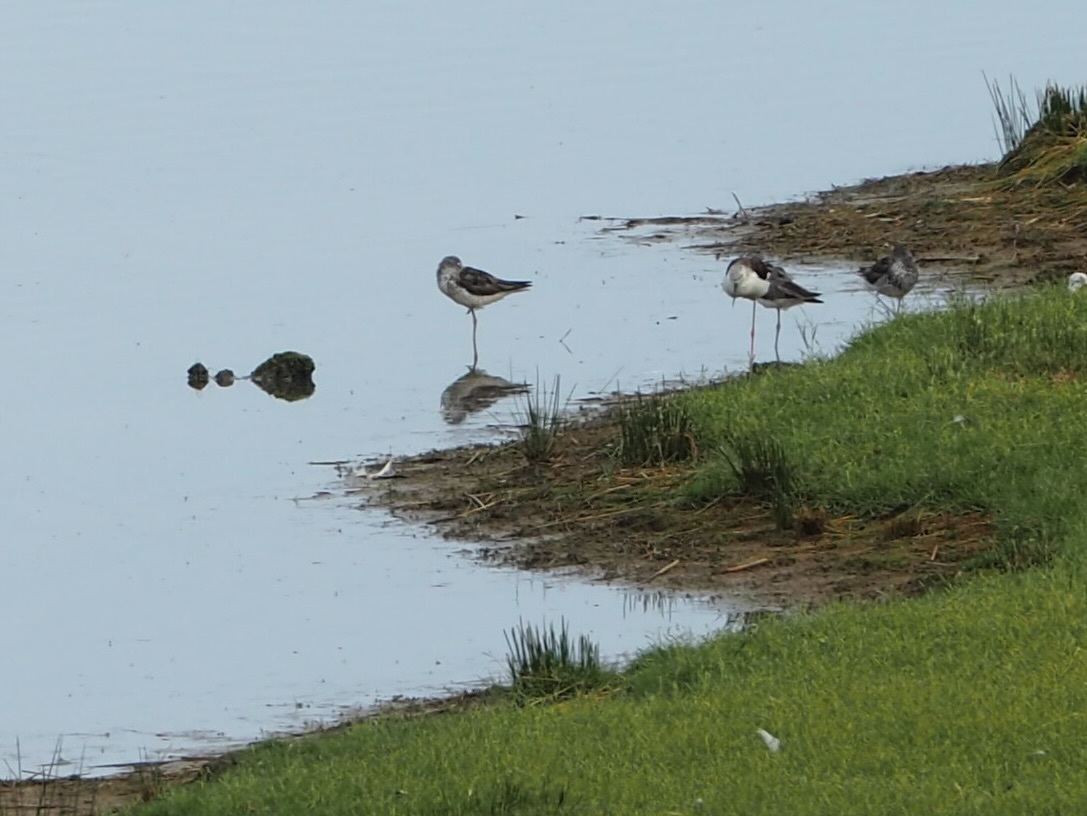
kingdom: Animalia
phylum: Chordata
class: Aves
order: Charadriiformes
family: Scolopacidae
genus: Tringa
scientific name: Tringa nebularia
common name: Common greenshank
